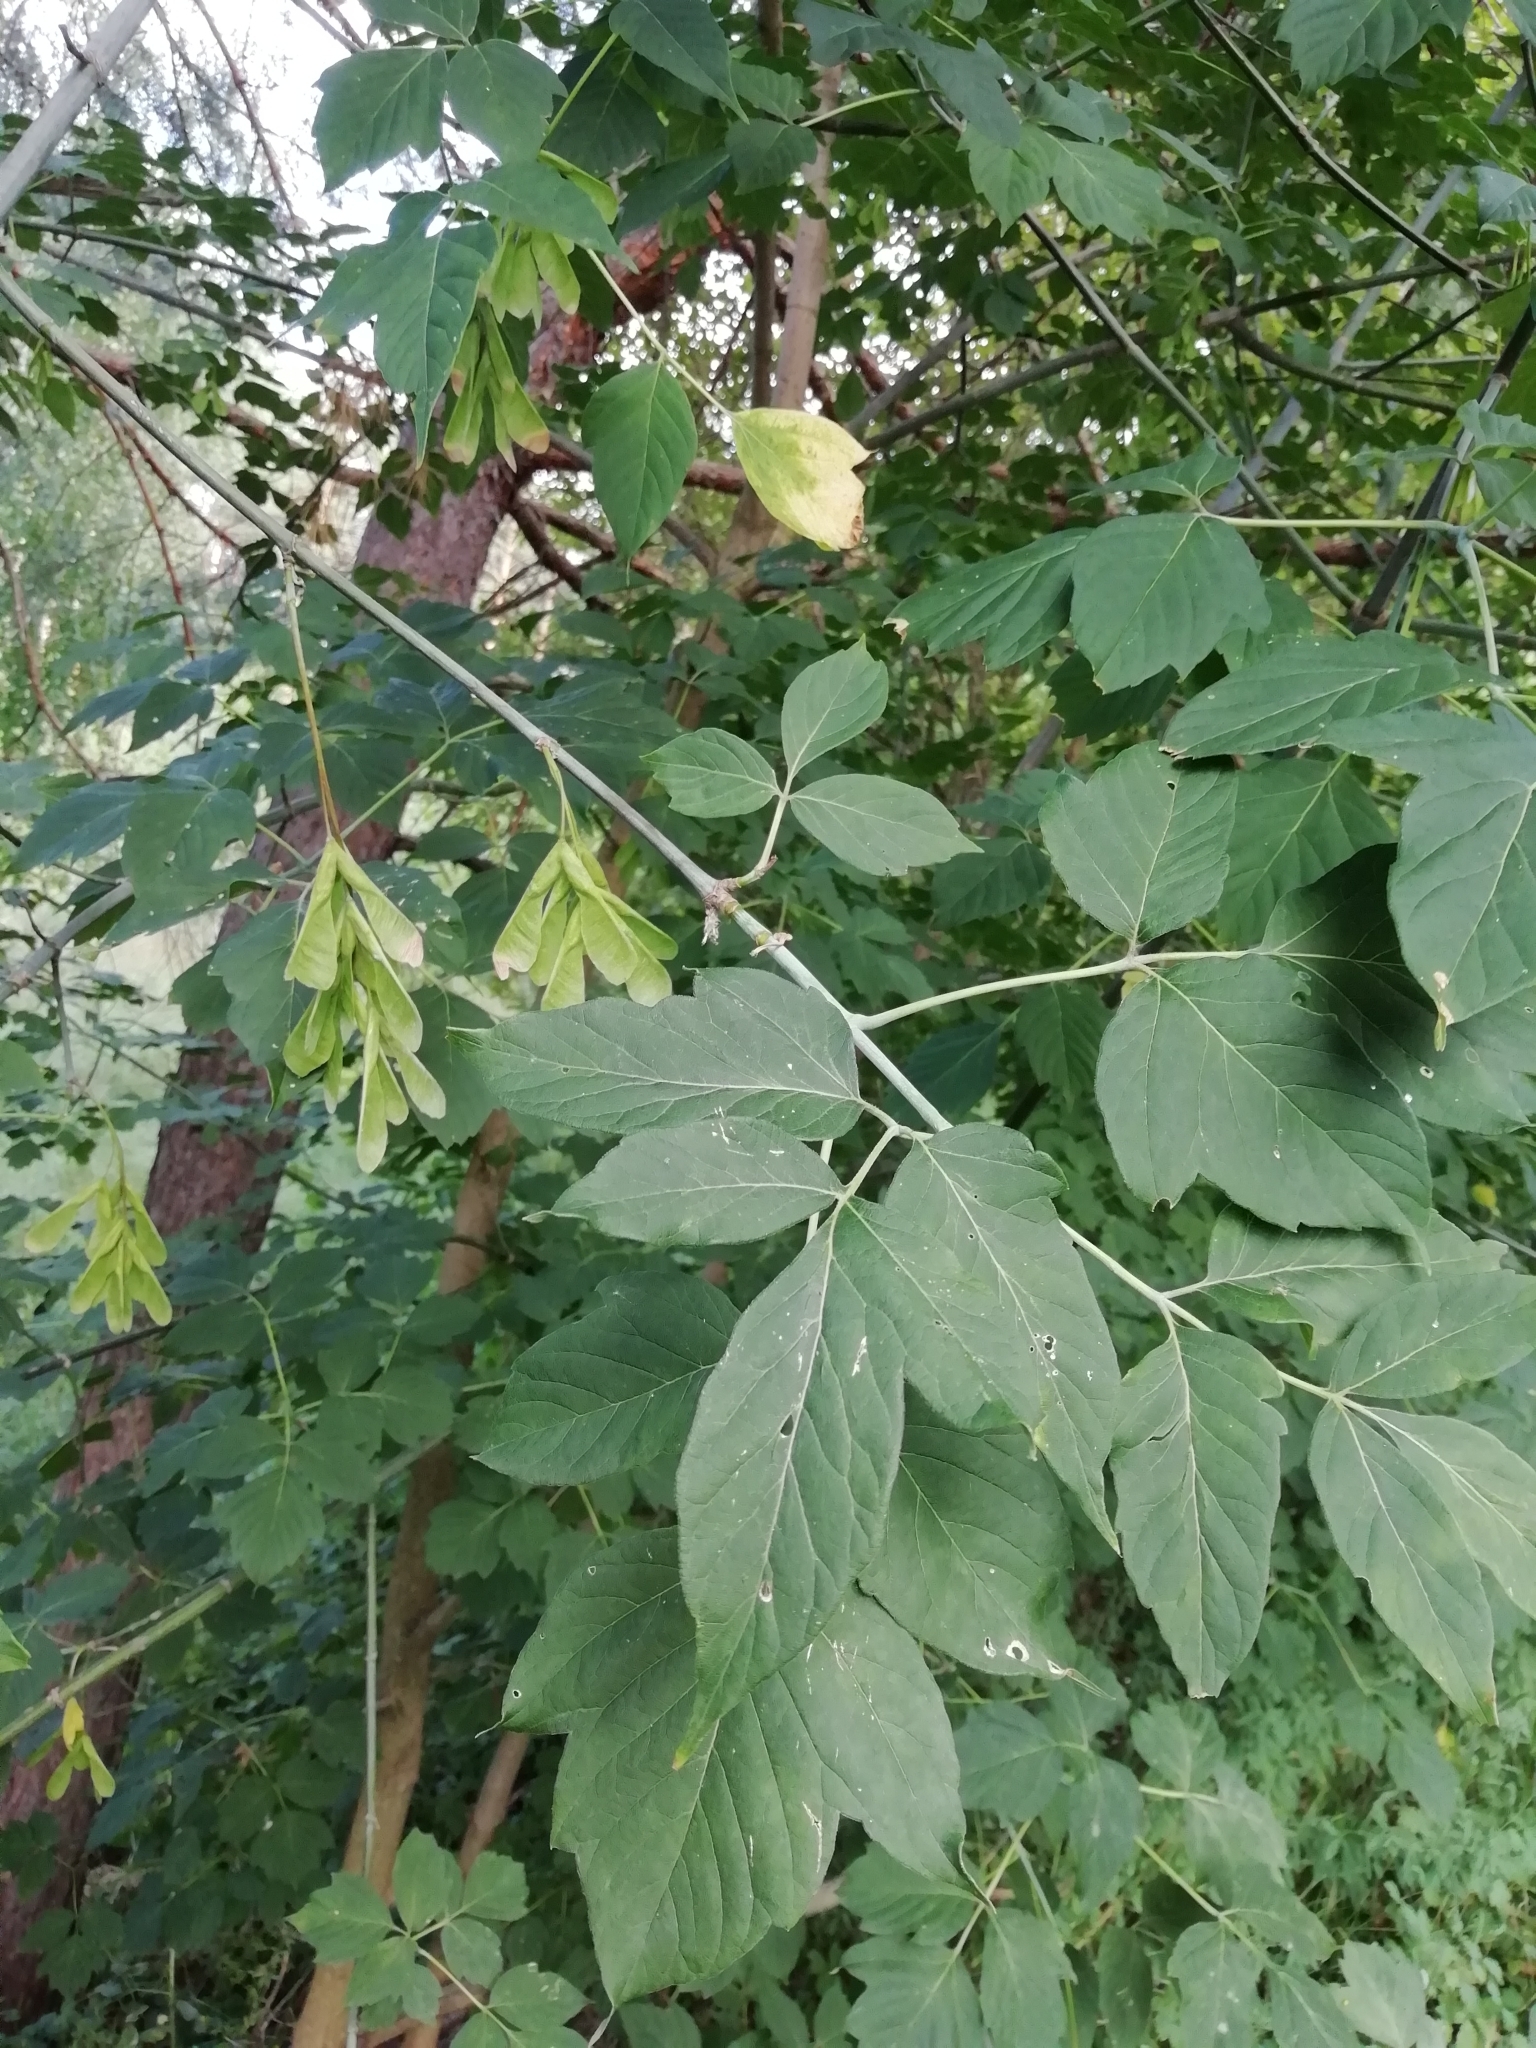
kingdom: Plantae
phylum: Tracheophyta
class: Magnoliopsida
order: Sapindales
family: Sapindaceae
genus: Acer
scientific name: Acer negundo
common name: Ashleaf maple
